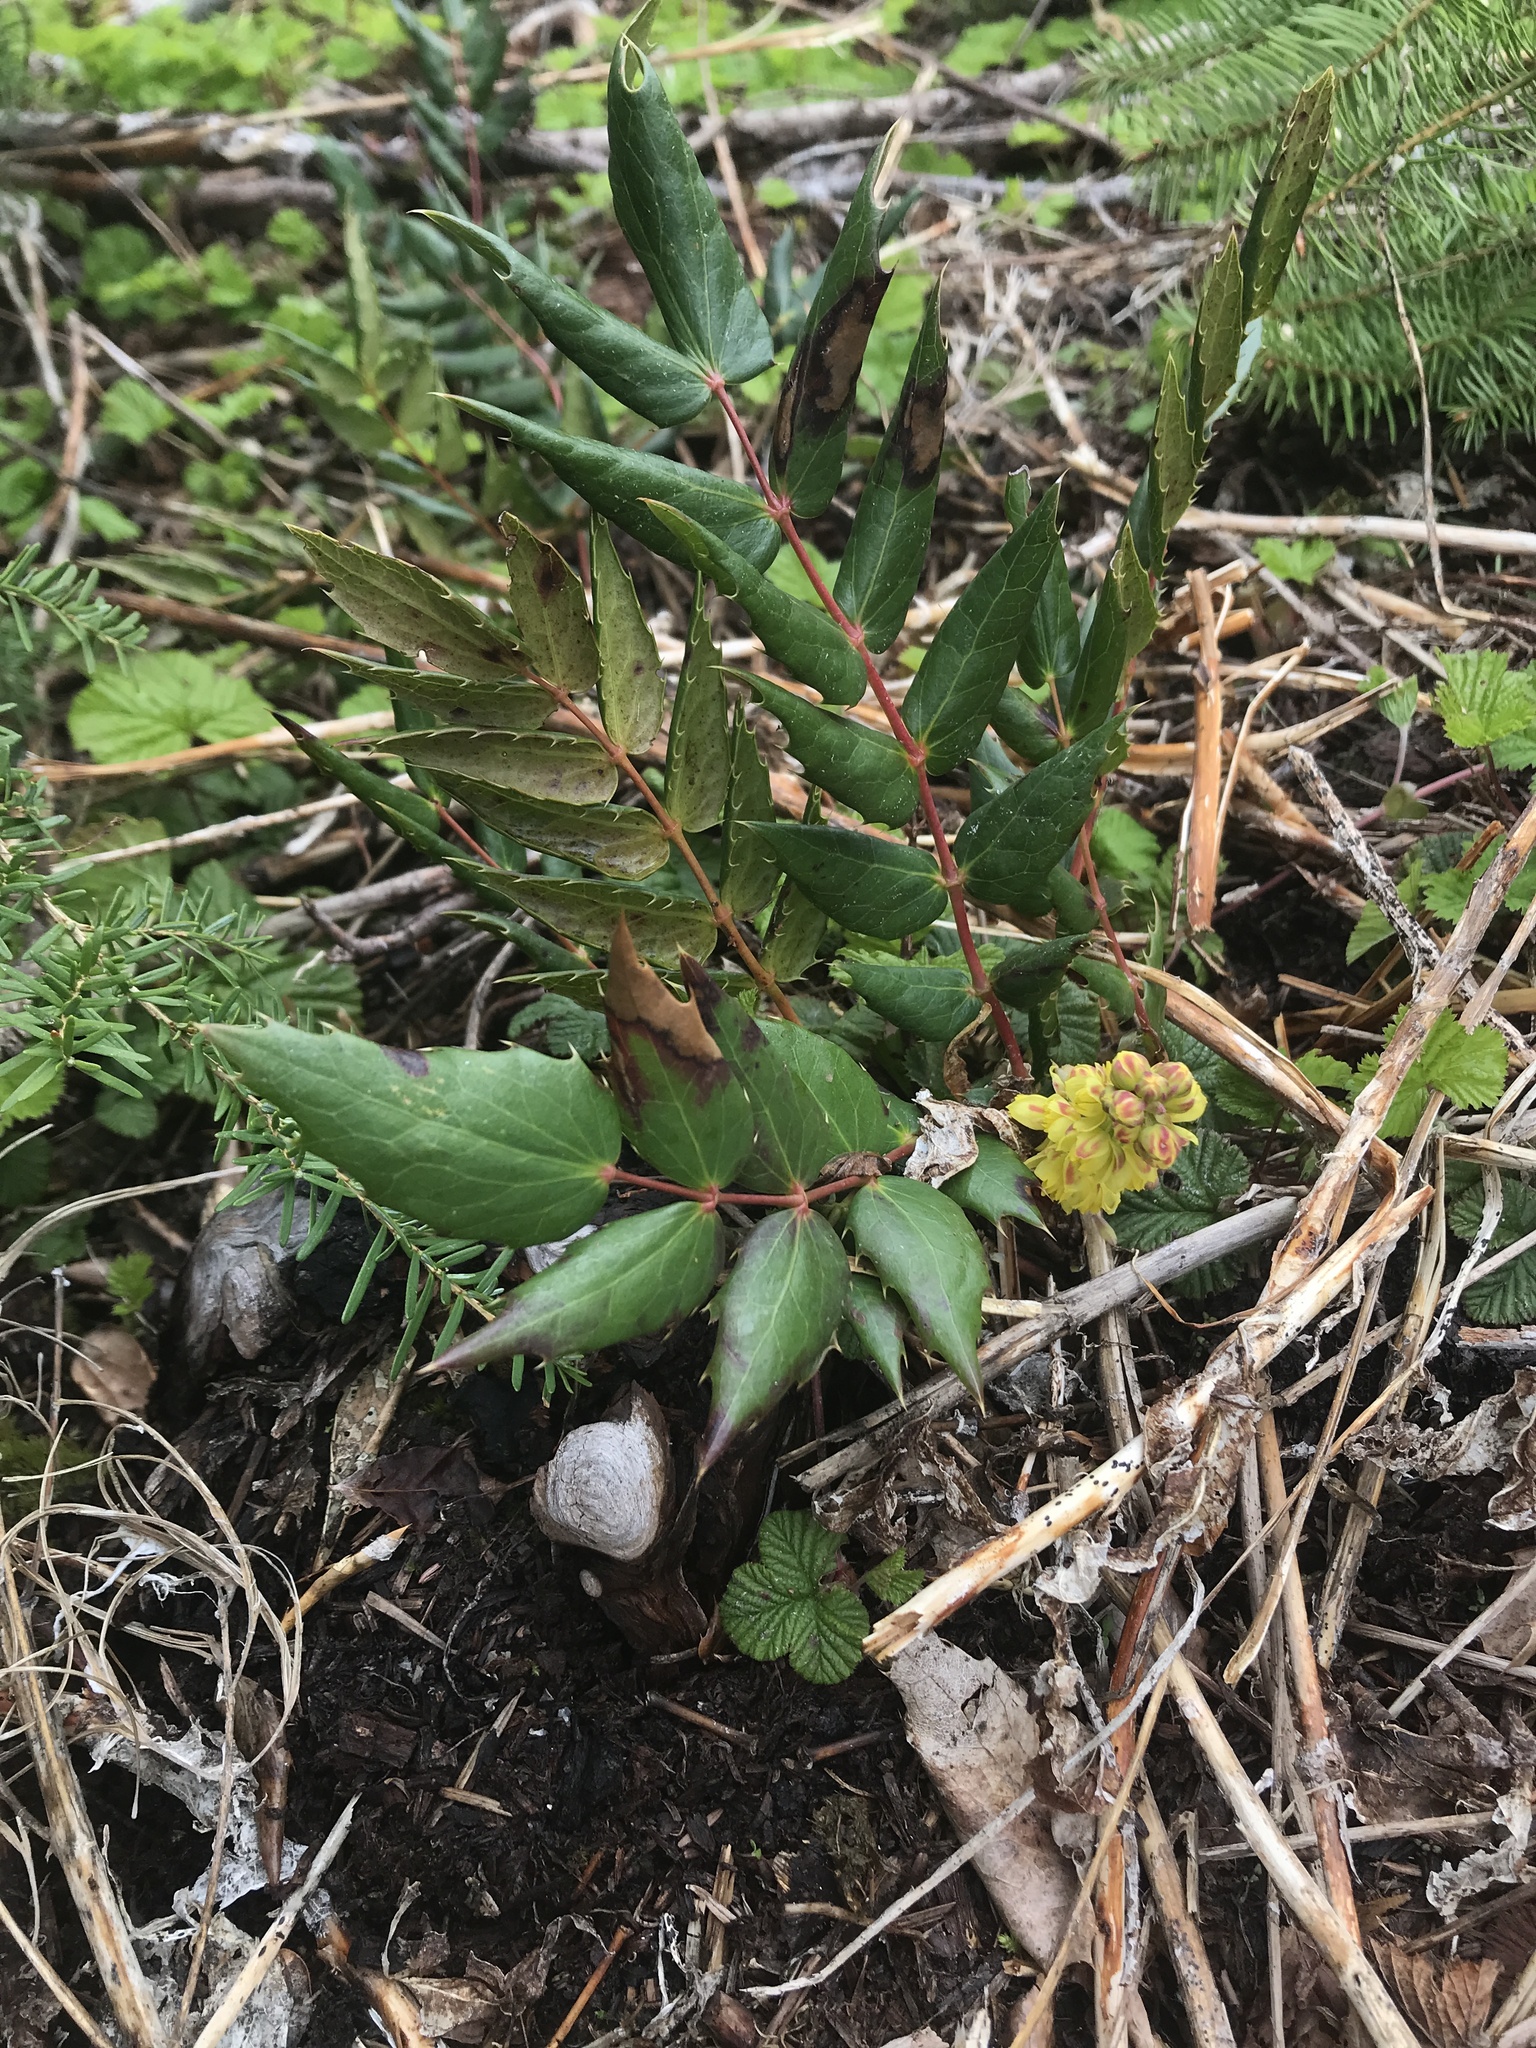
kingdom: Plantae
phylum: Tracheophyta
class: Magnoliopsida
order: Ranunculales
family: Berberidaceae
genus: Mahonia
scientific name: Mahonia nervosa
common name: Cascade oregon-grape
